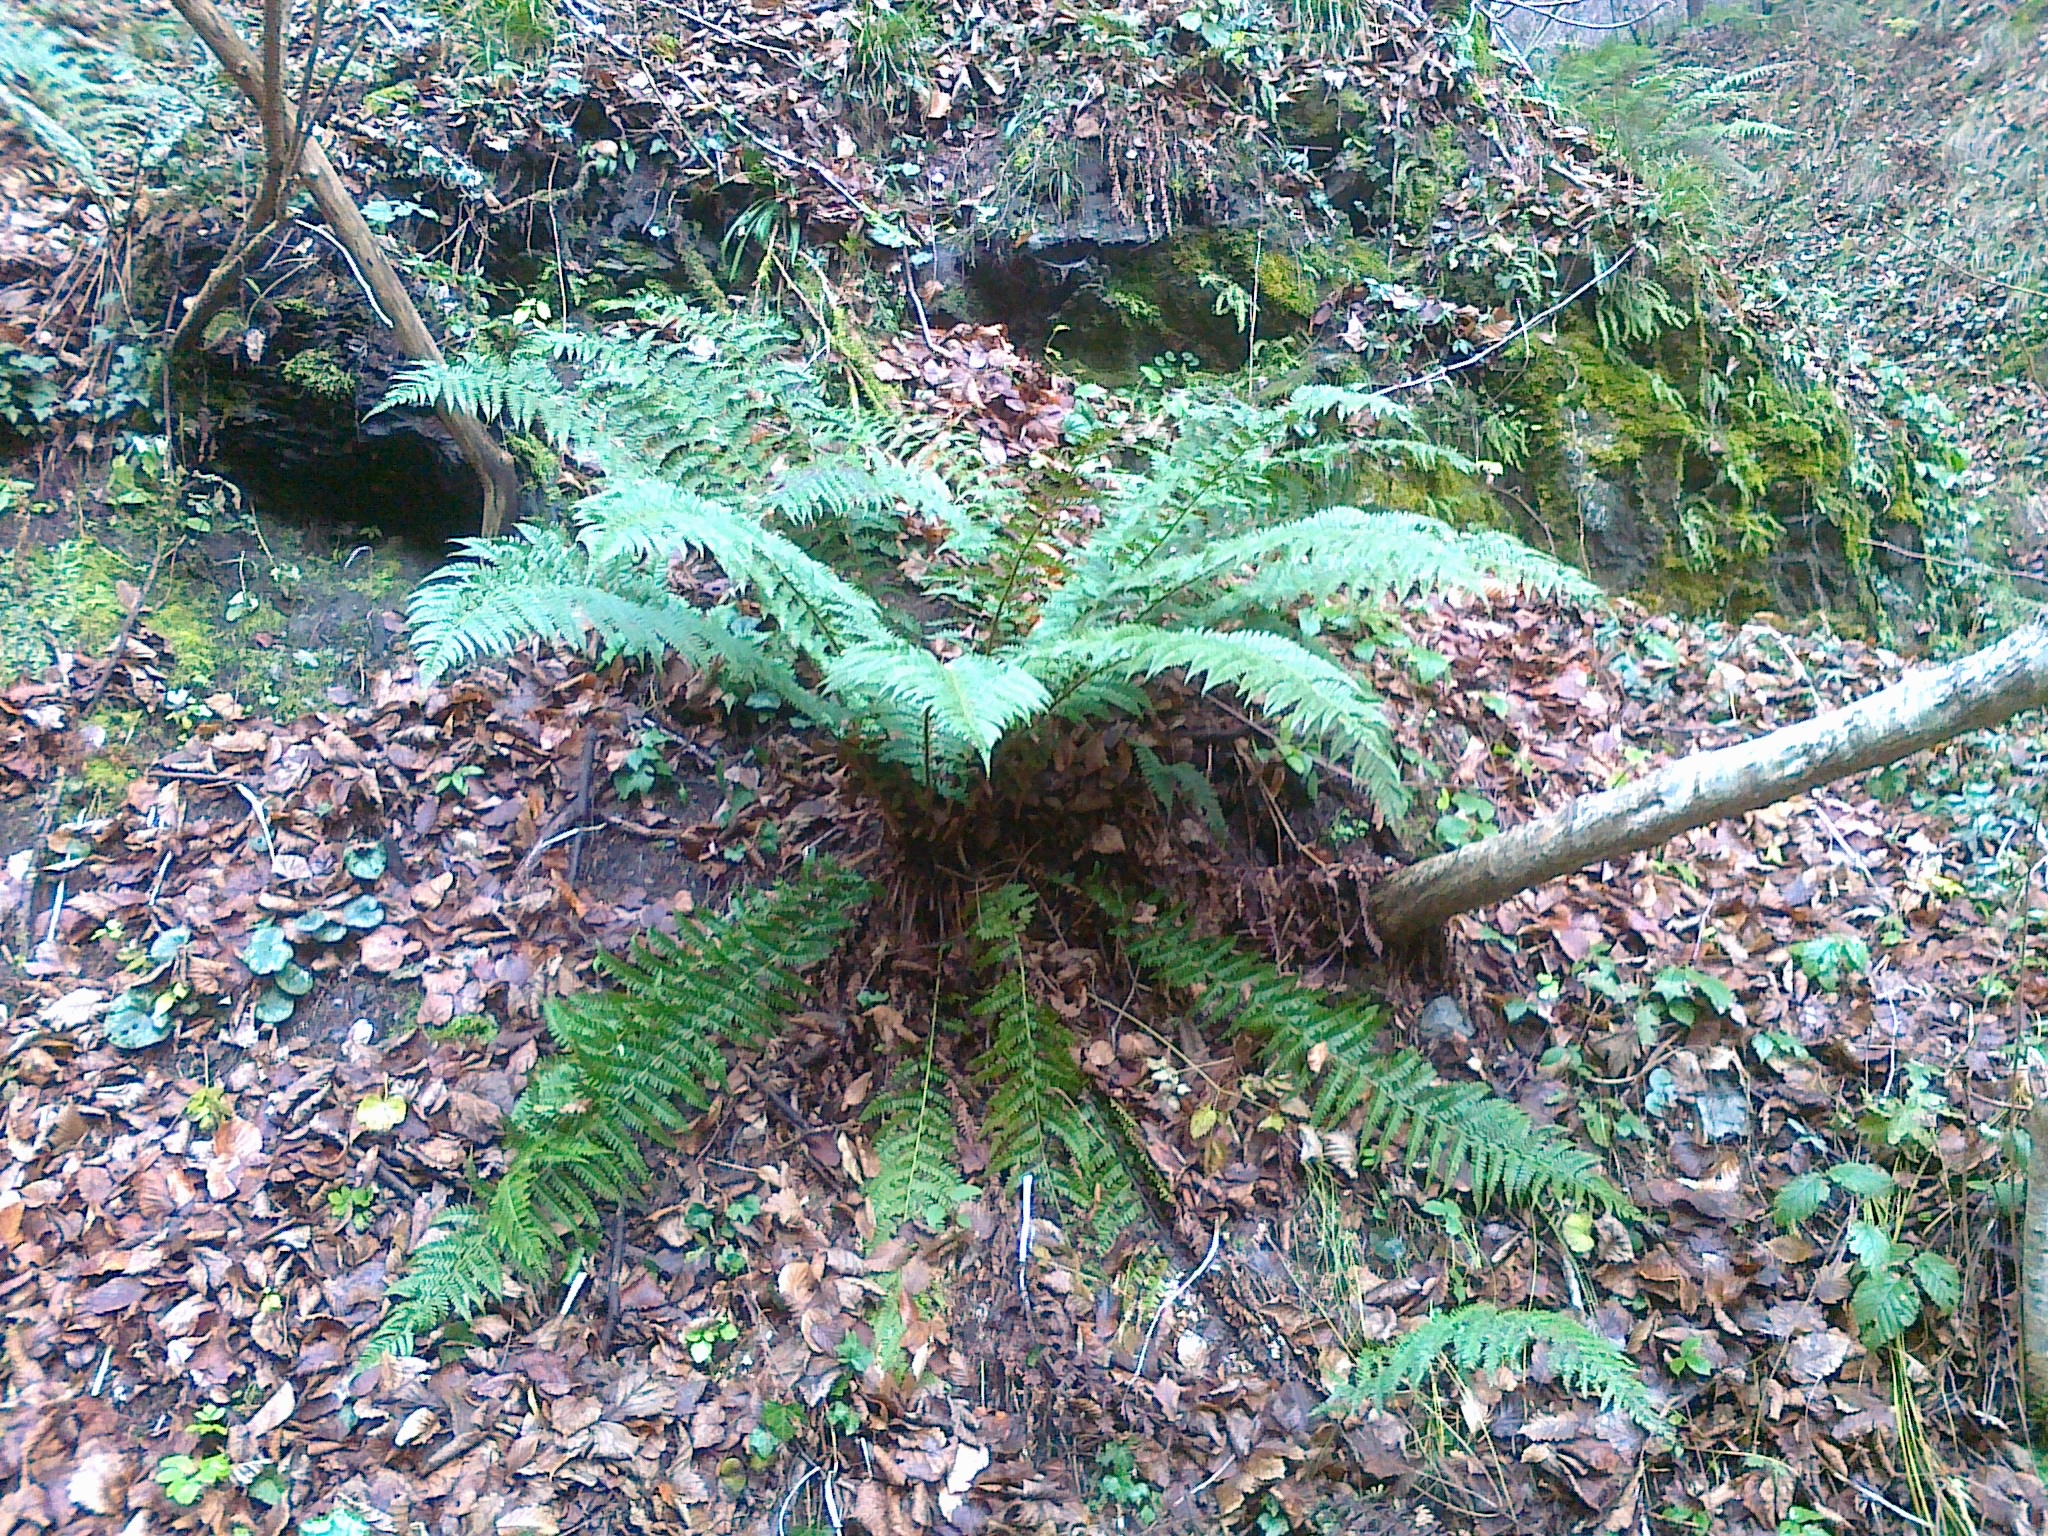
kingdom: Plantae
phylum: Tracheophyta
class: Polypodiopsida
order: Polypodiales
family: Dryopteridaceae
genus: Polystichum
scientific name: Polystichum luerssenii
